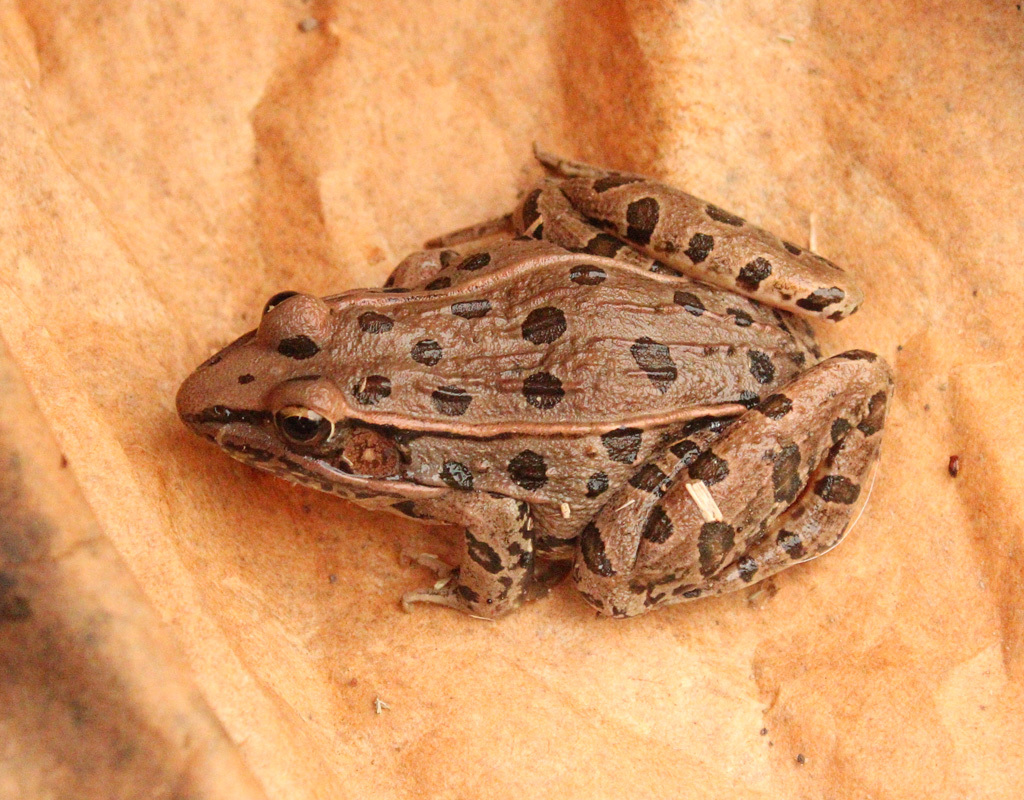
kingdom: Animalia
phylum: Chordata
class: Amphibia
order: Anura
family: Ranidae
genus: Lithobates
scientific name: Lithobates sphenocephalus
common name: Southern leopard frog
